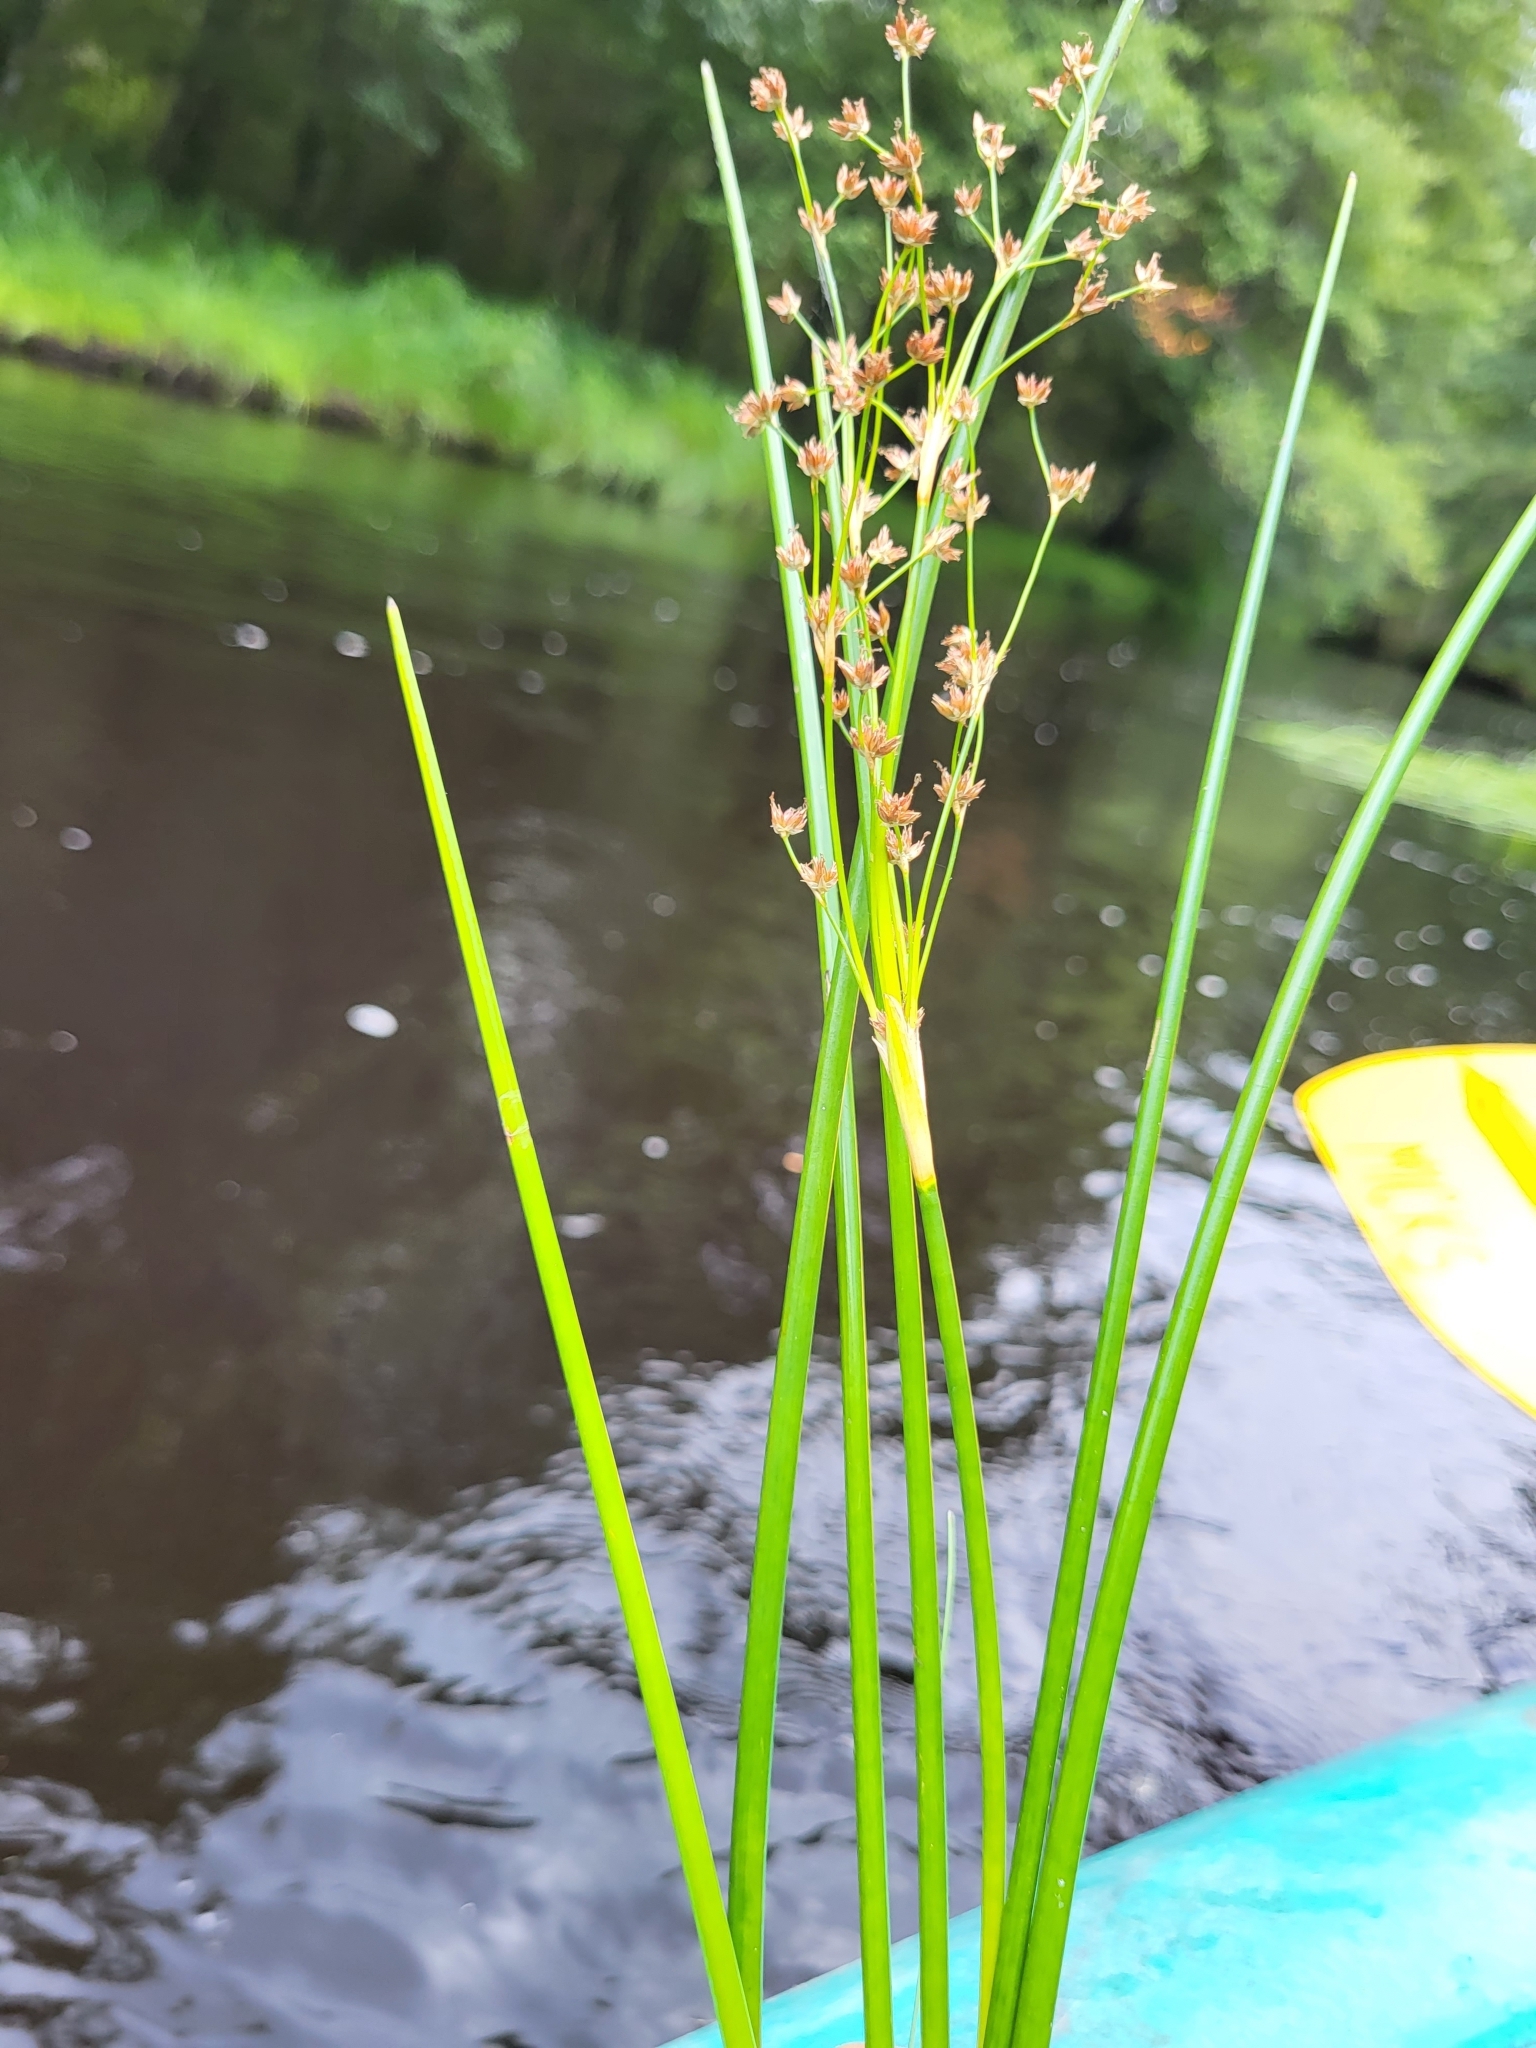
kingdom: Plantae
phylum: Tracheophyta
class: Liliopsida
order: Poales
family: Juncaceae
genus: Juncus
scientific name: Juncus militaris
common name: Bayonet rush
